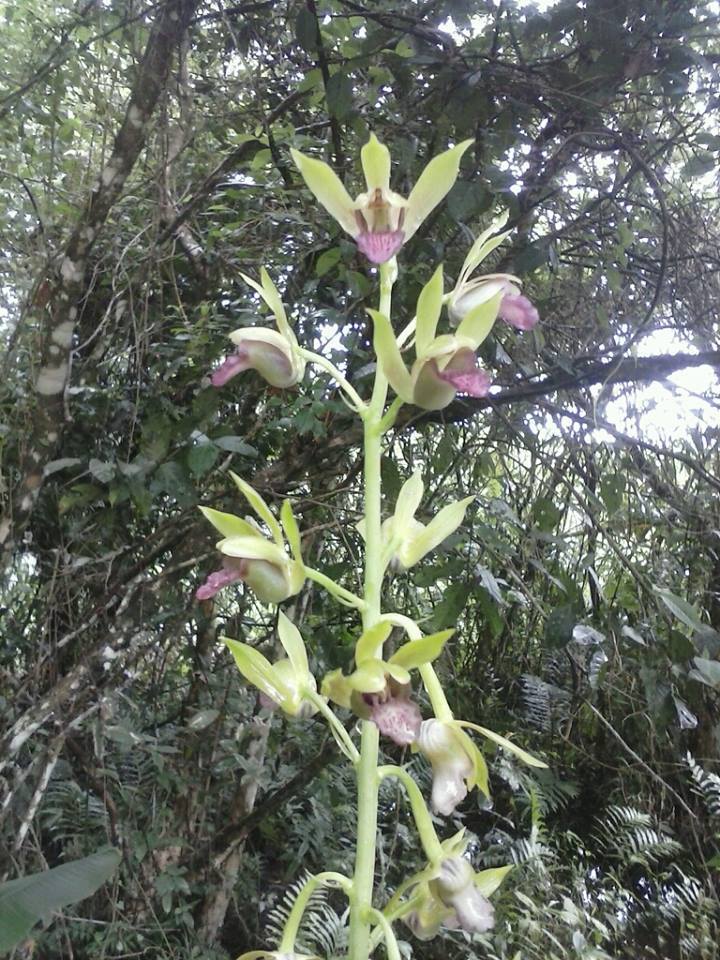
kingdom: Plantae
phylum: Tracheophyta
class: Liliopsida
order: Asparagales
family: Orchidaceae
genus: Eulophia
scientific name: Eulophia alta
